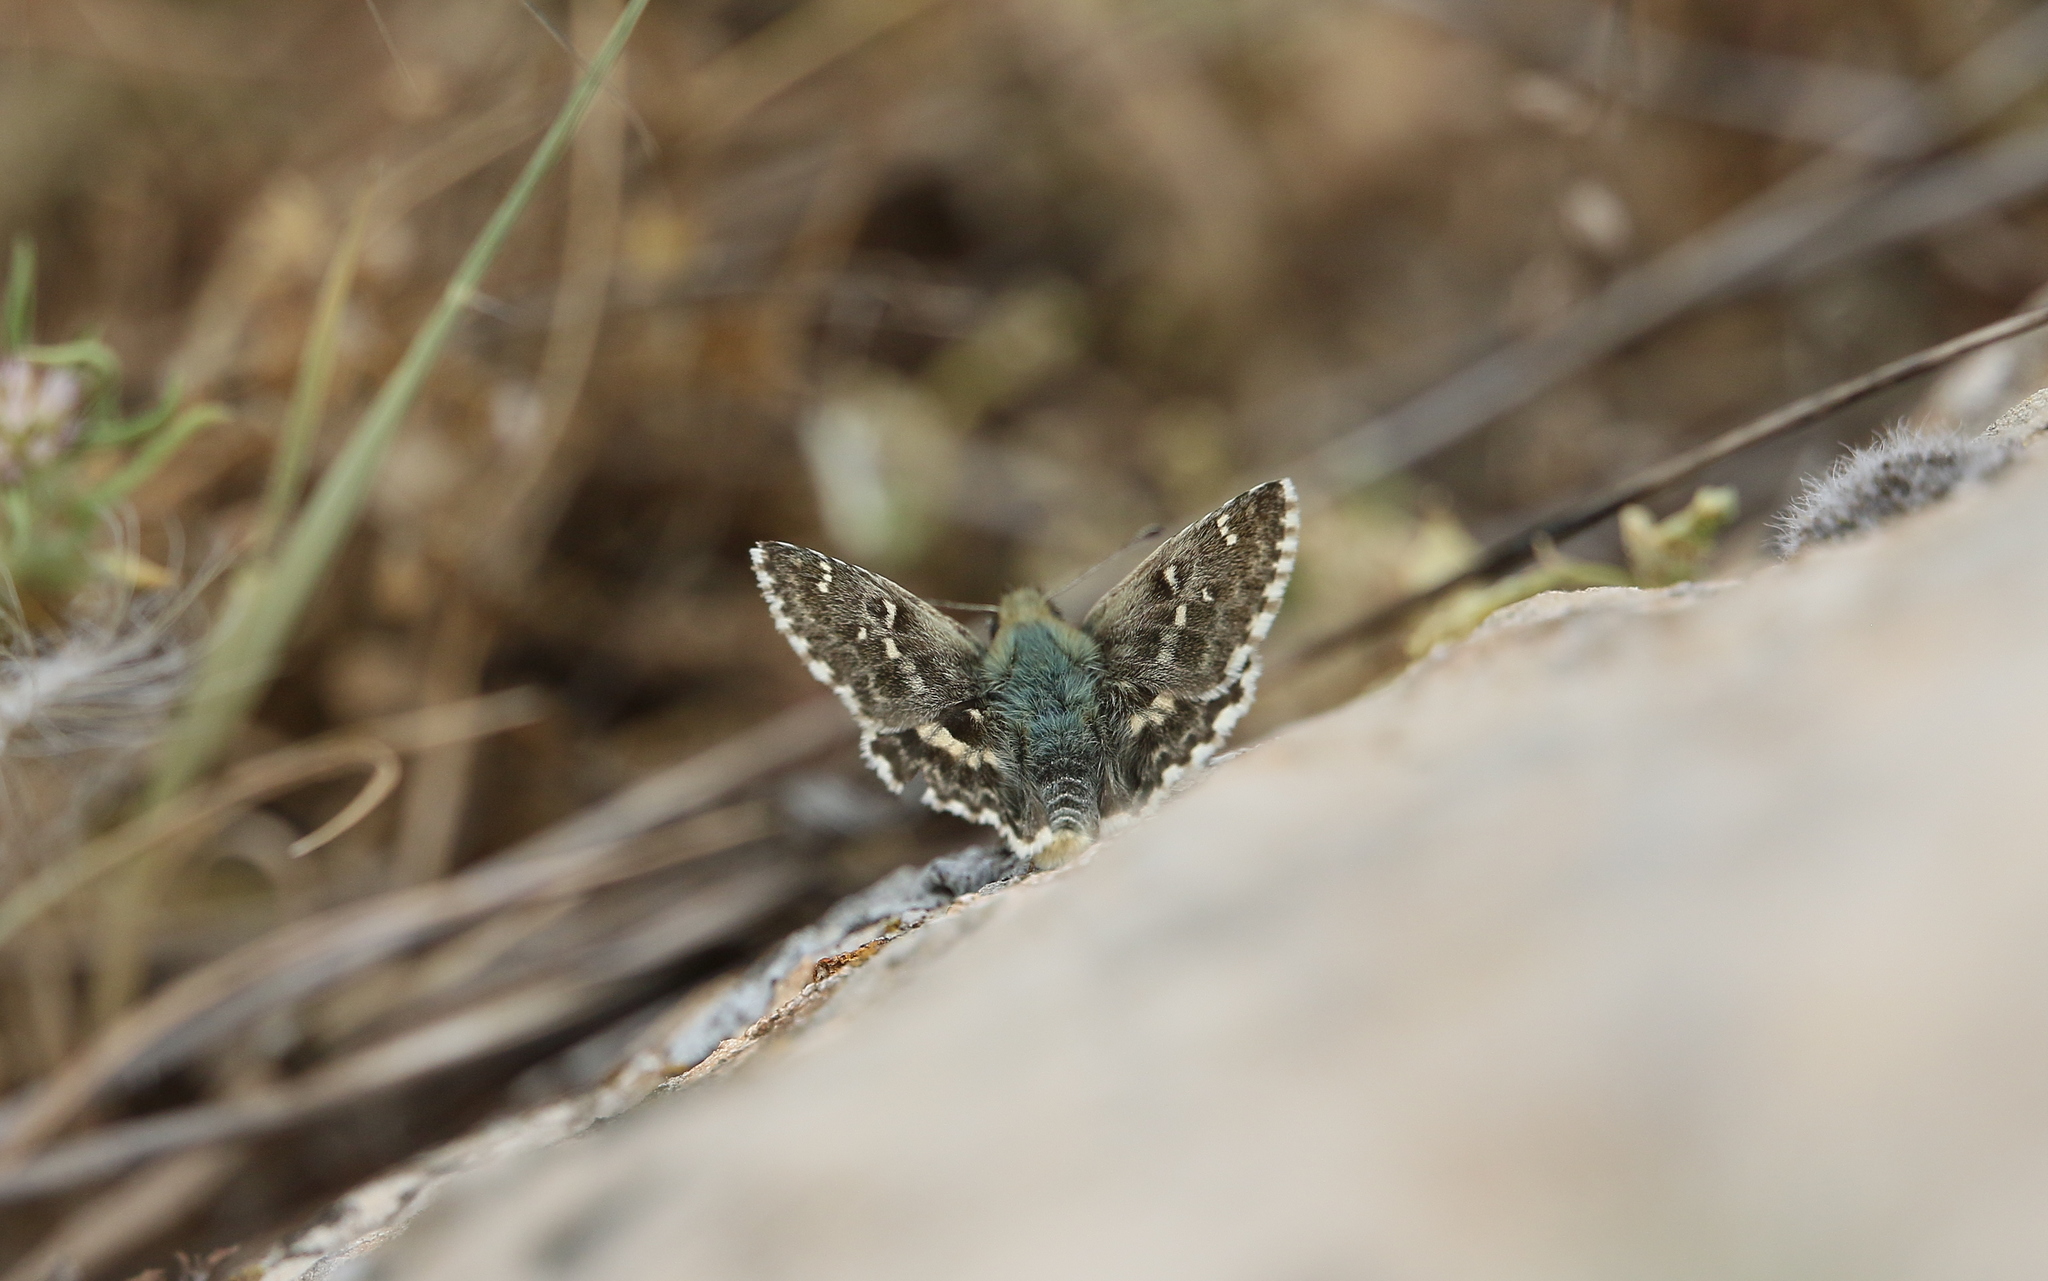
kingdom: Animalia
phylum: Arthropoda
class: Insecta
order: Lepidoptera
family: Hesperiidae
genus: Syrichtus
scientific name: Syrichtus Muschampia proto
